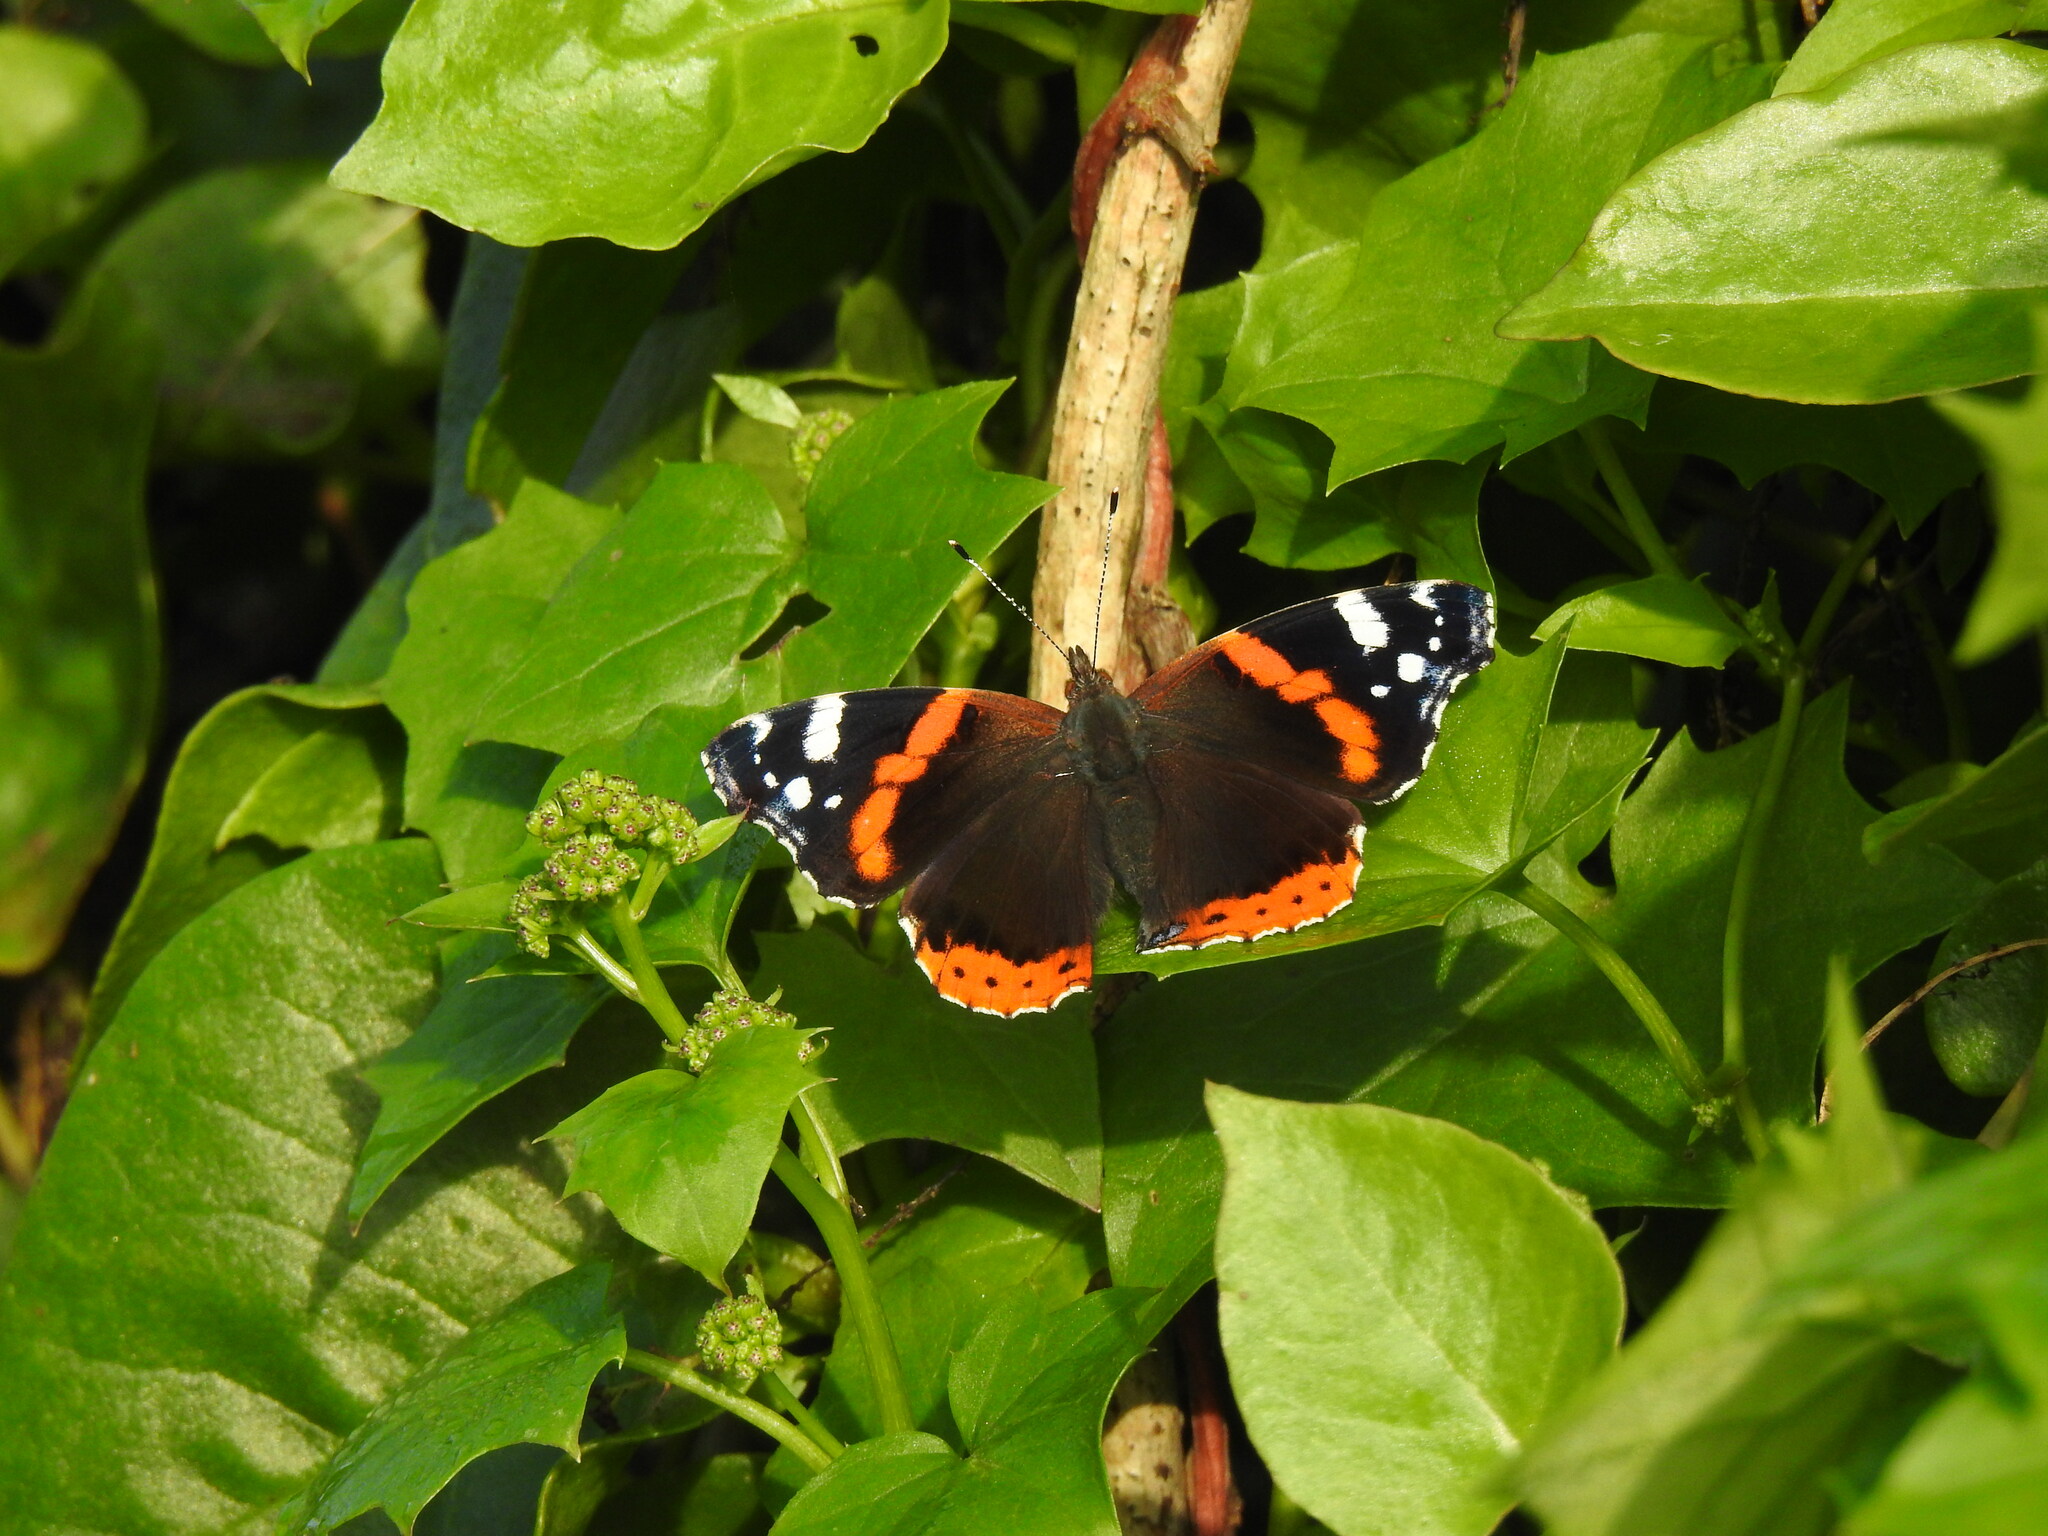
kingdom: Animalia
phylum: Arthropoda
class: Insecta
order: Lepidoptera
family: Nymphalidae
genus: Vanessa
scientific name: Vanessa atalanta
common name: Red admiral
